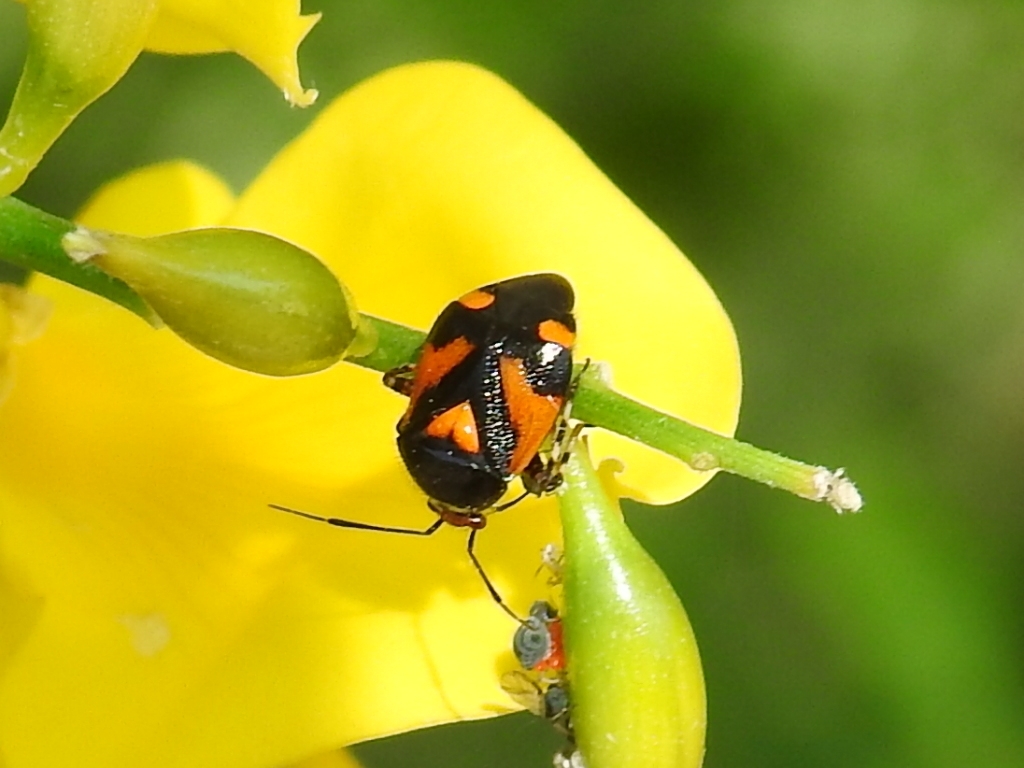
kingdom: Animalia
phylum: Arthropoda
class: Insecta
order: Hemiptera
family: Miridae
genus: Deraeocoris
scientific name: Deraeocoris schach
